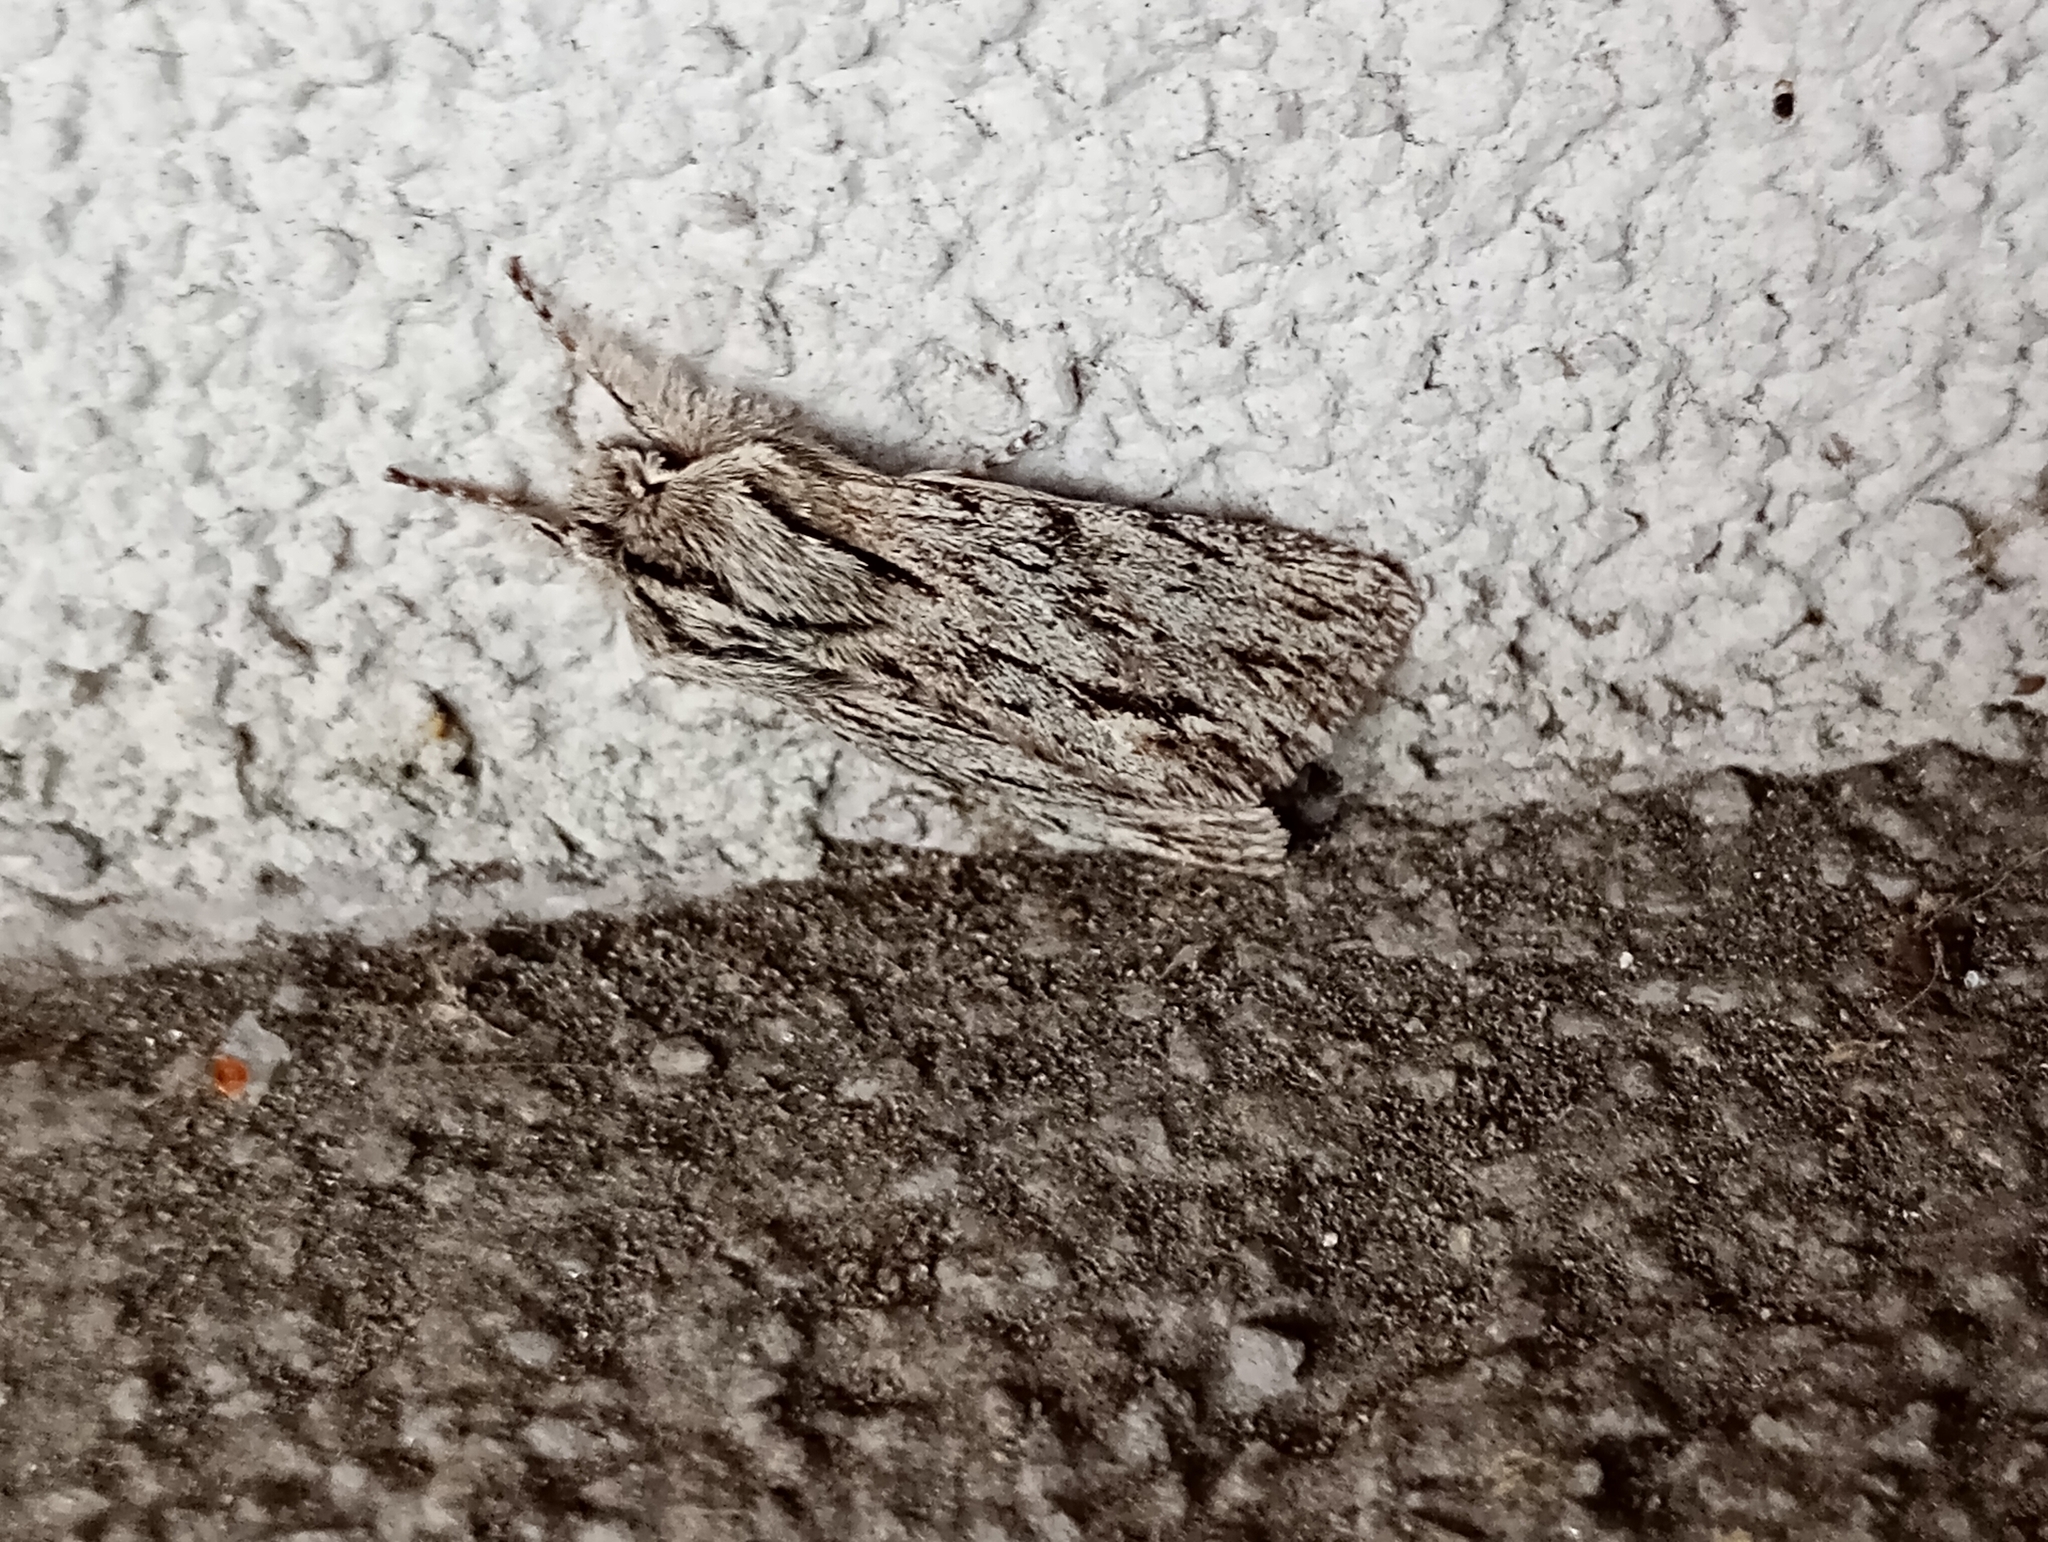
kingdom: Animalia
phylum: Arthropoda
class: Insecta
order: Lepidoptera
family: Noctuidae
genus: Asteroscopus
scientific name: Asteroscopus sphinx
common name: The sprawler
